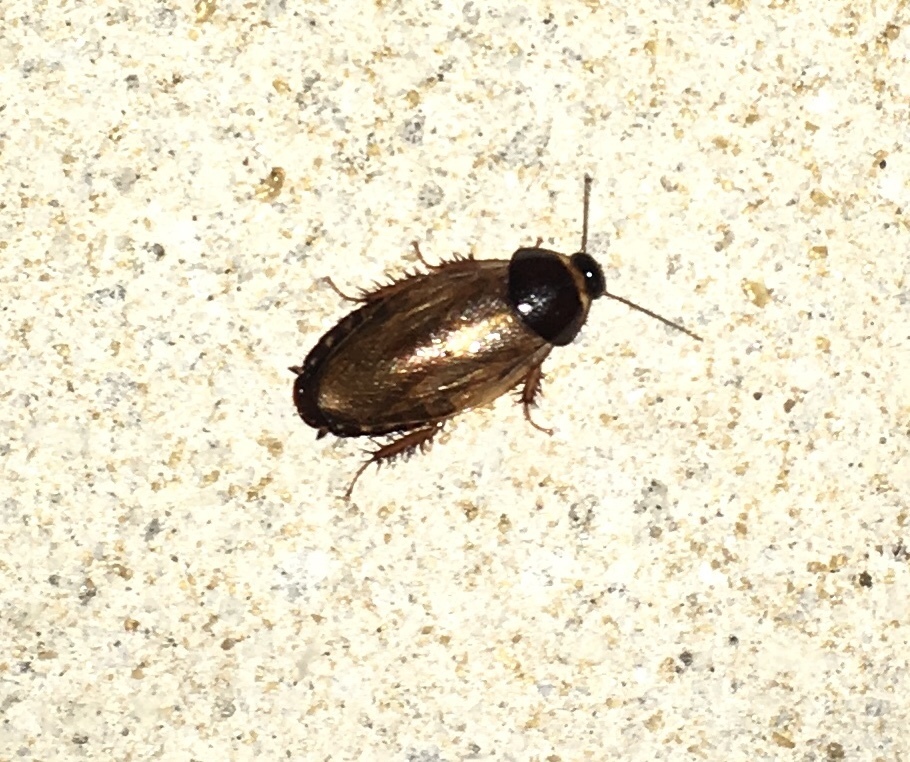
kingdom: Animalia
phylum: Arthropoda
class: Insecta
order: Blattodea
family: Blaberidae
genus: Pycnoscelus
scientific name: Pycnoscelus surinamensis
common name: Surinam cockroach
